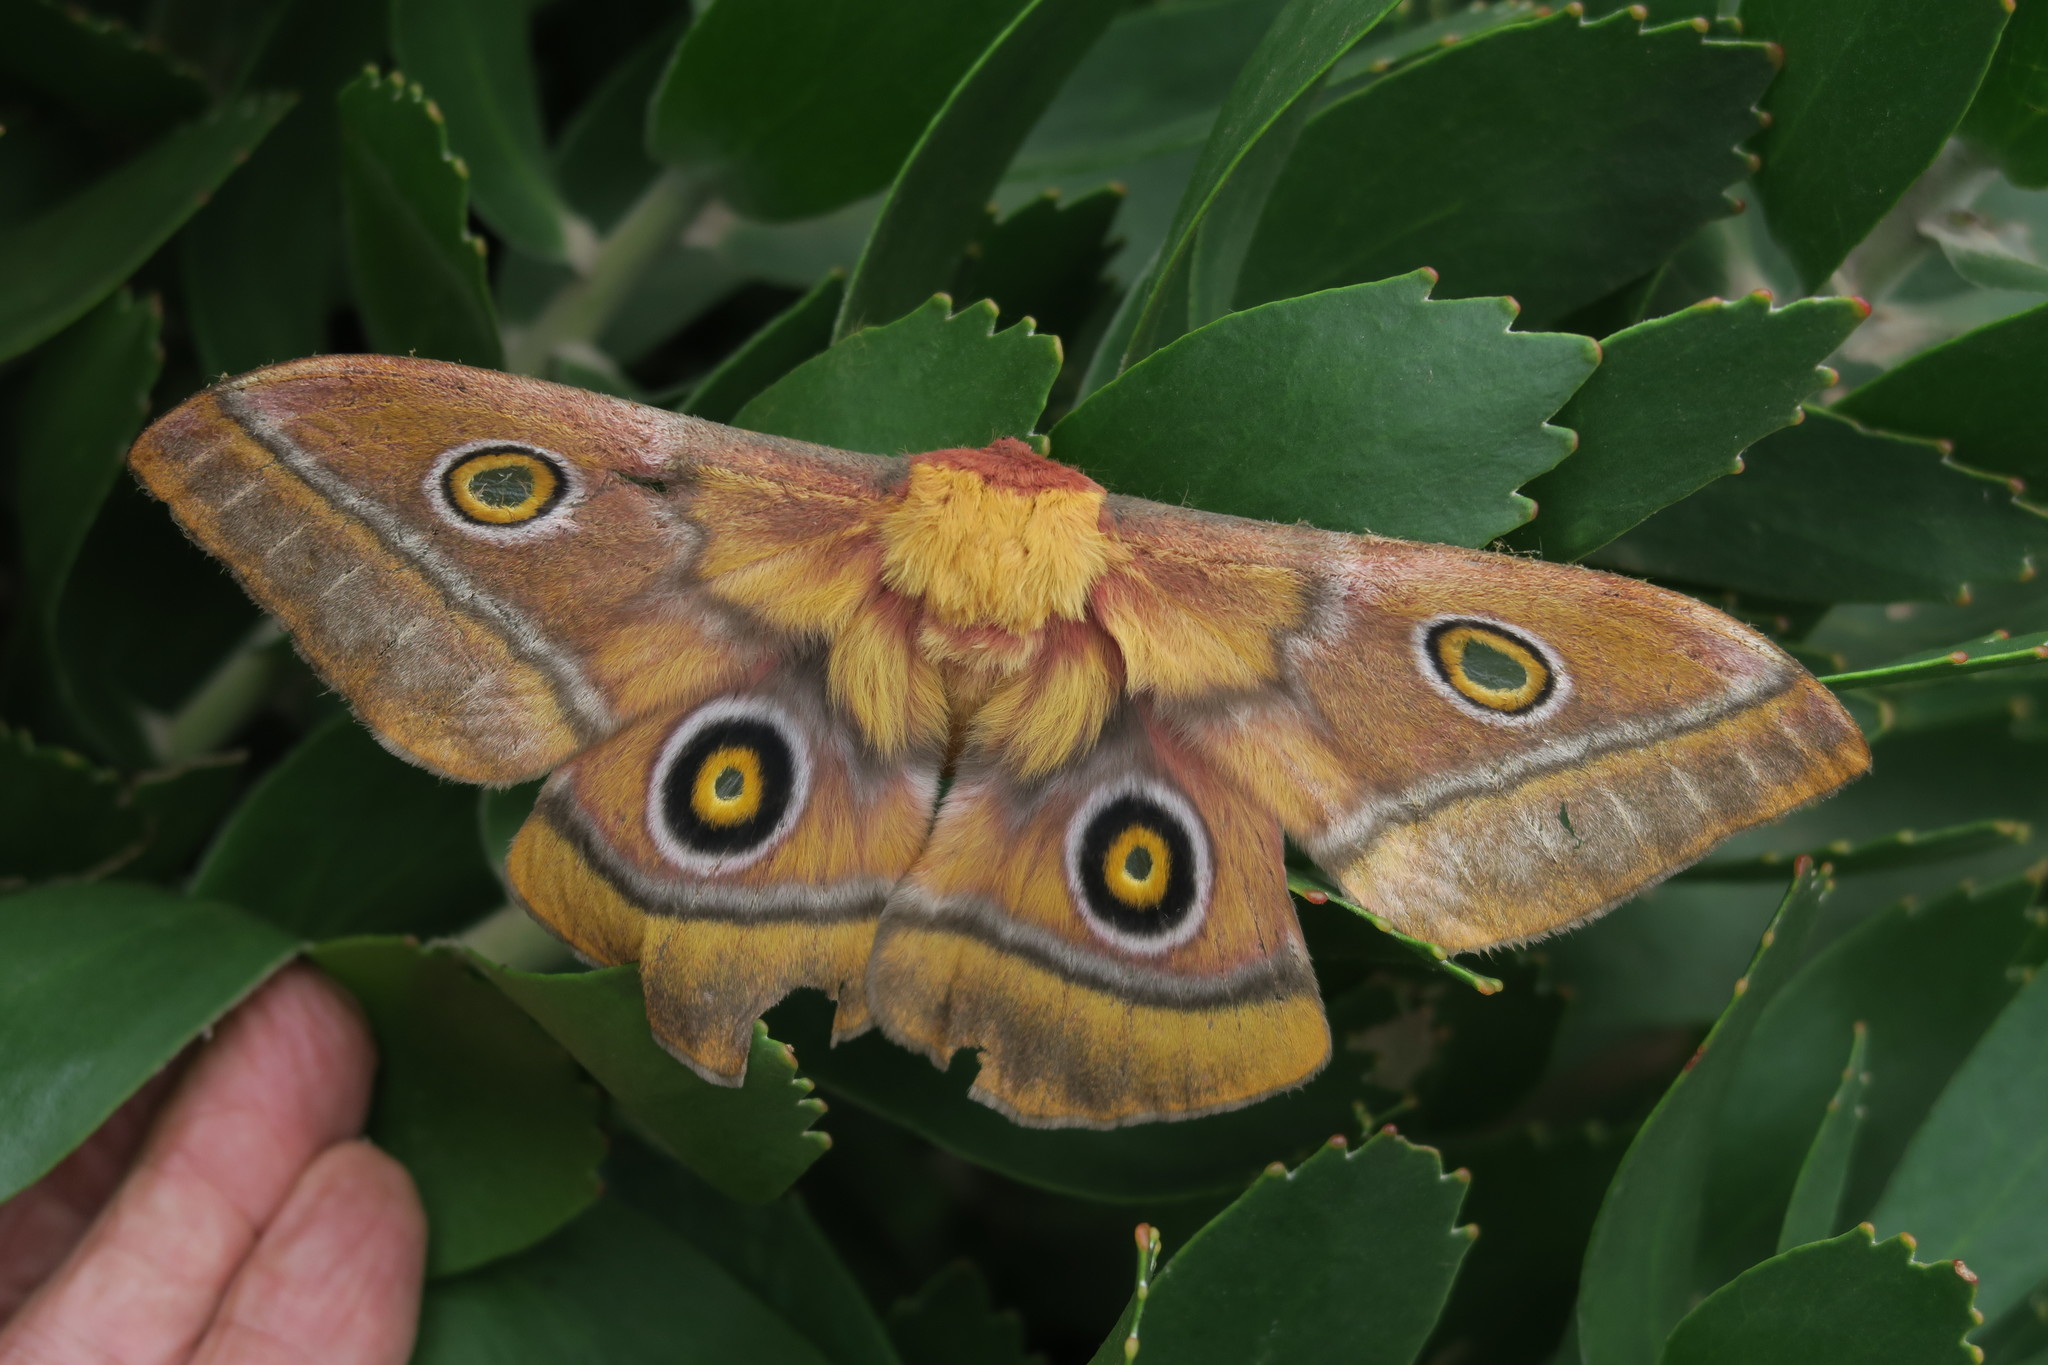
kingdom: Animalia
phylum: Arthropoda
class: Insecta
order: Lepidoptera
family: Saturniidae
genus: Nudaurelia
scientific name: Nudaurelia cytherea
